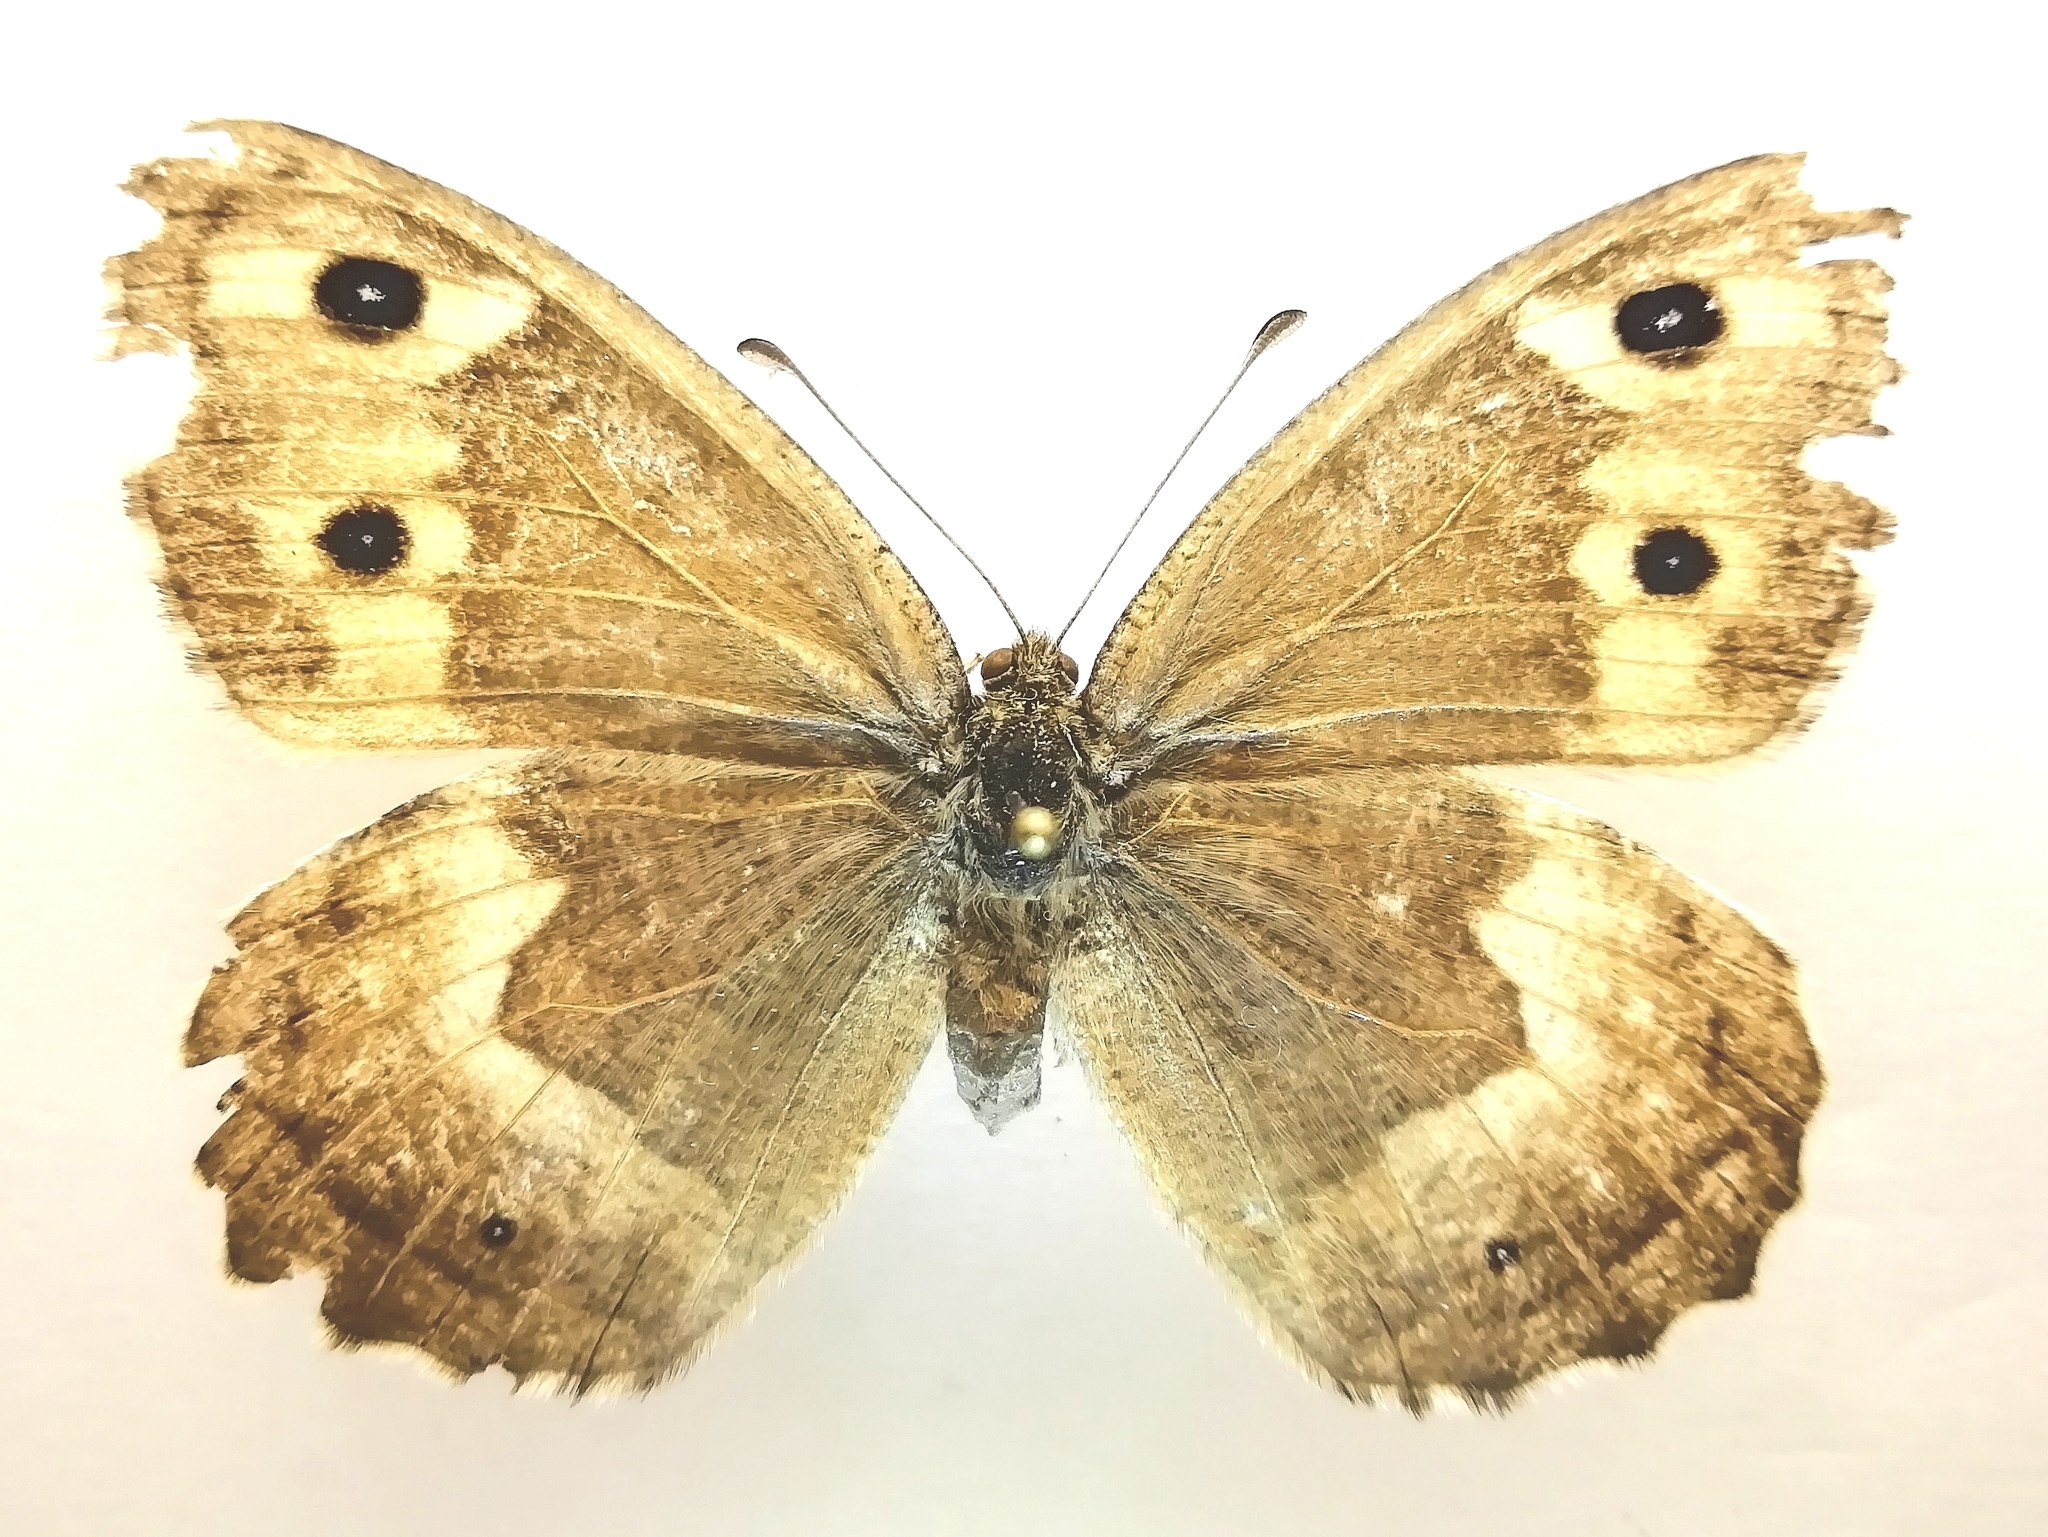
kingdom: Animalia
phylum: Arthropoda
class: Insecta
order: Lepidoptera
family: Nymphalidae
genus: Hipparchia
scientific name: Hipparchia autonoe
